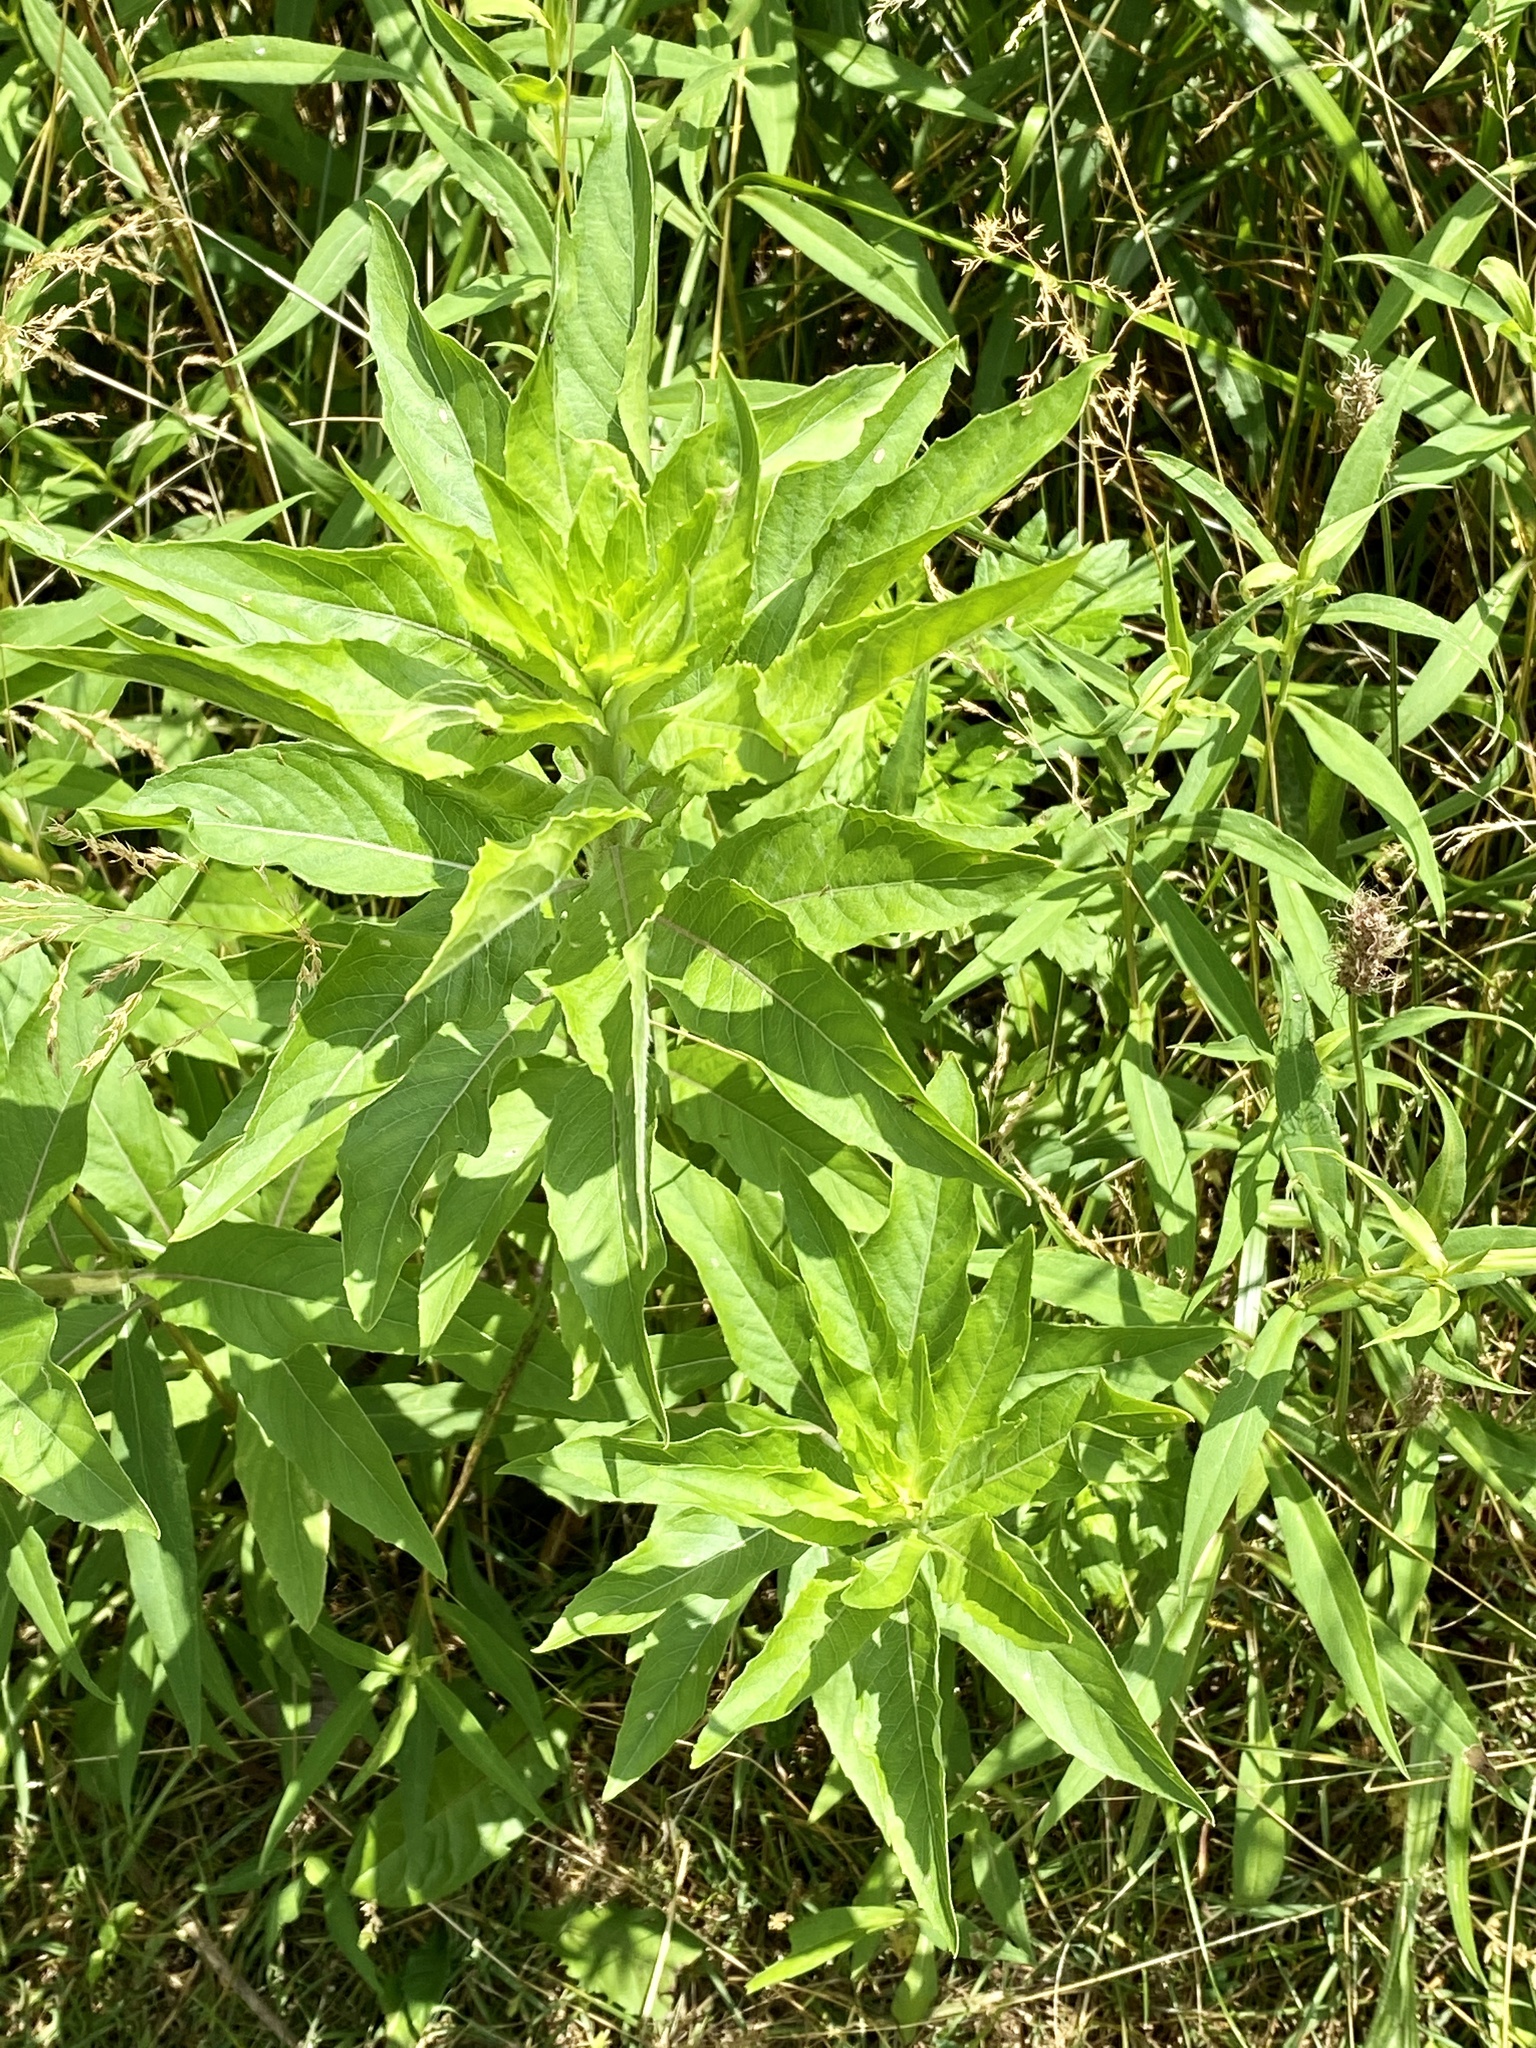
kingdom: Plantae
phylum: Tracheophyta
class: Magnoliopsida
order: Myrtales
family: Onagraceae
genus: Oenothera
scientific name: Oenothera biennis
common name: Common evening-primrose
